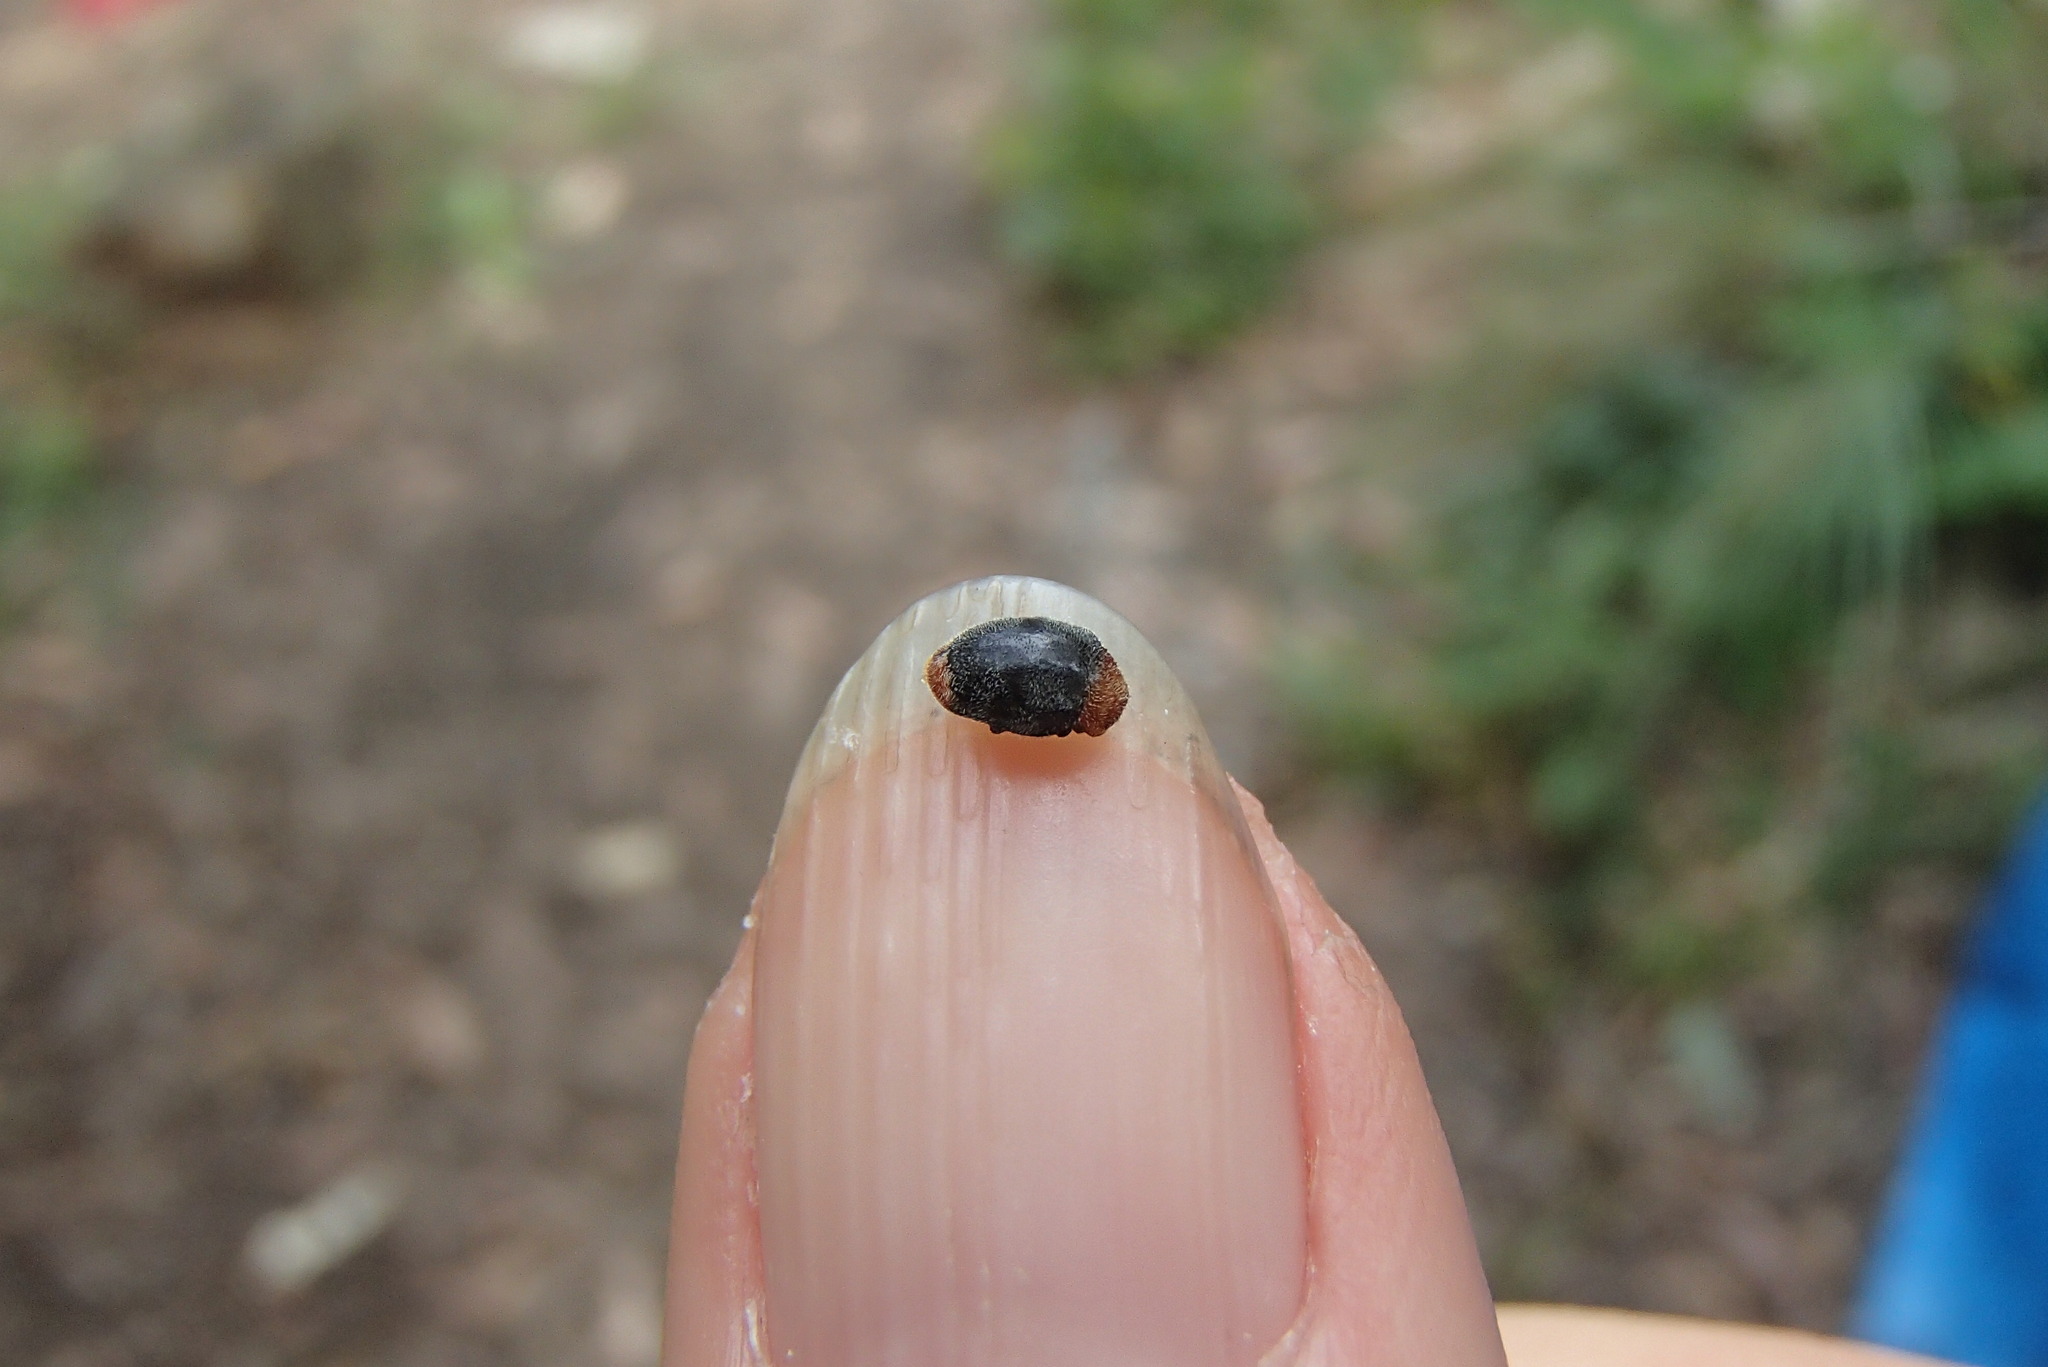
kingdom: Animalia
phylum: Arthropoda
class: Insecta
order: Coleoptera
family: Coccinellidae
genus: Cryptolaemus
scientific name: Cryptolaemus montrouzieri
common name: Mealybug destroyer
